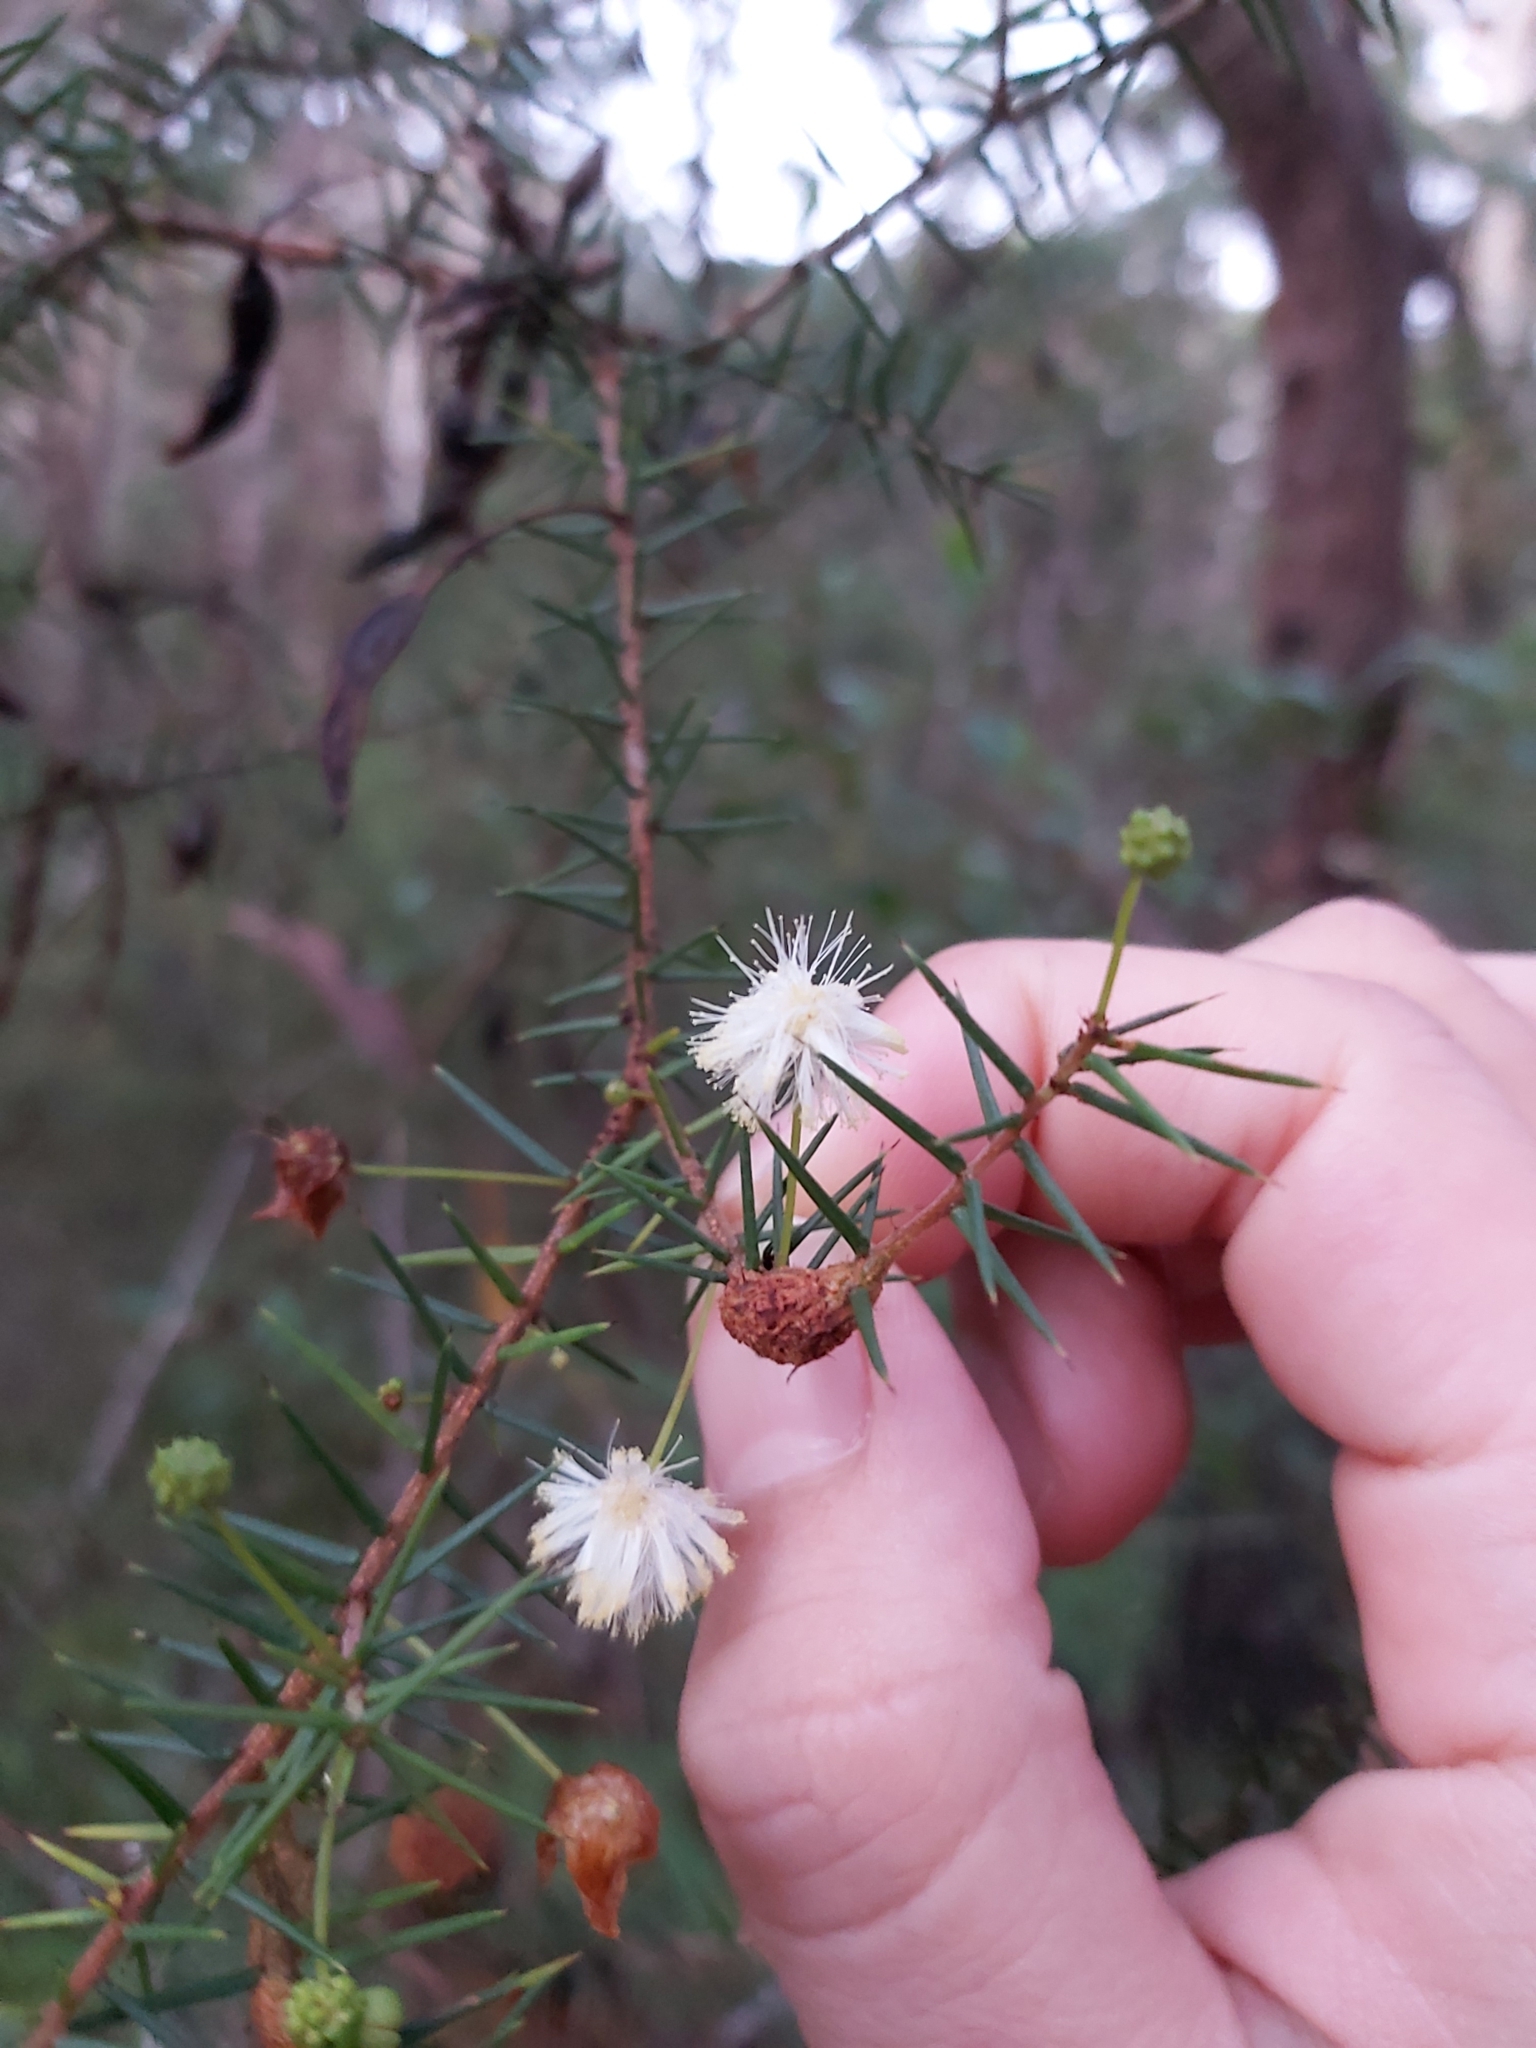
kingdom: Plantae
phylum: Tracheophyta
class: Magnoliopsida
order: Fabales
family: Fabaceae
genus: Acacia
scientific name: Acacia ulicifolia
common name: Juniper wattle
